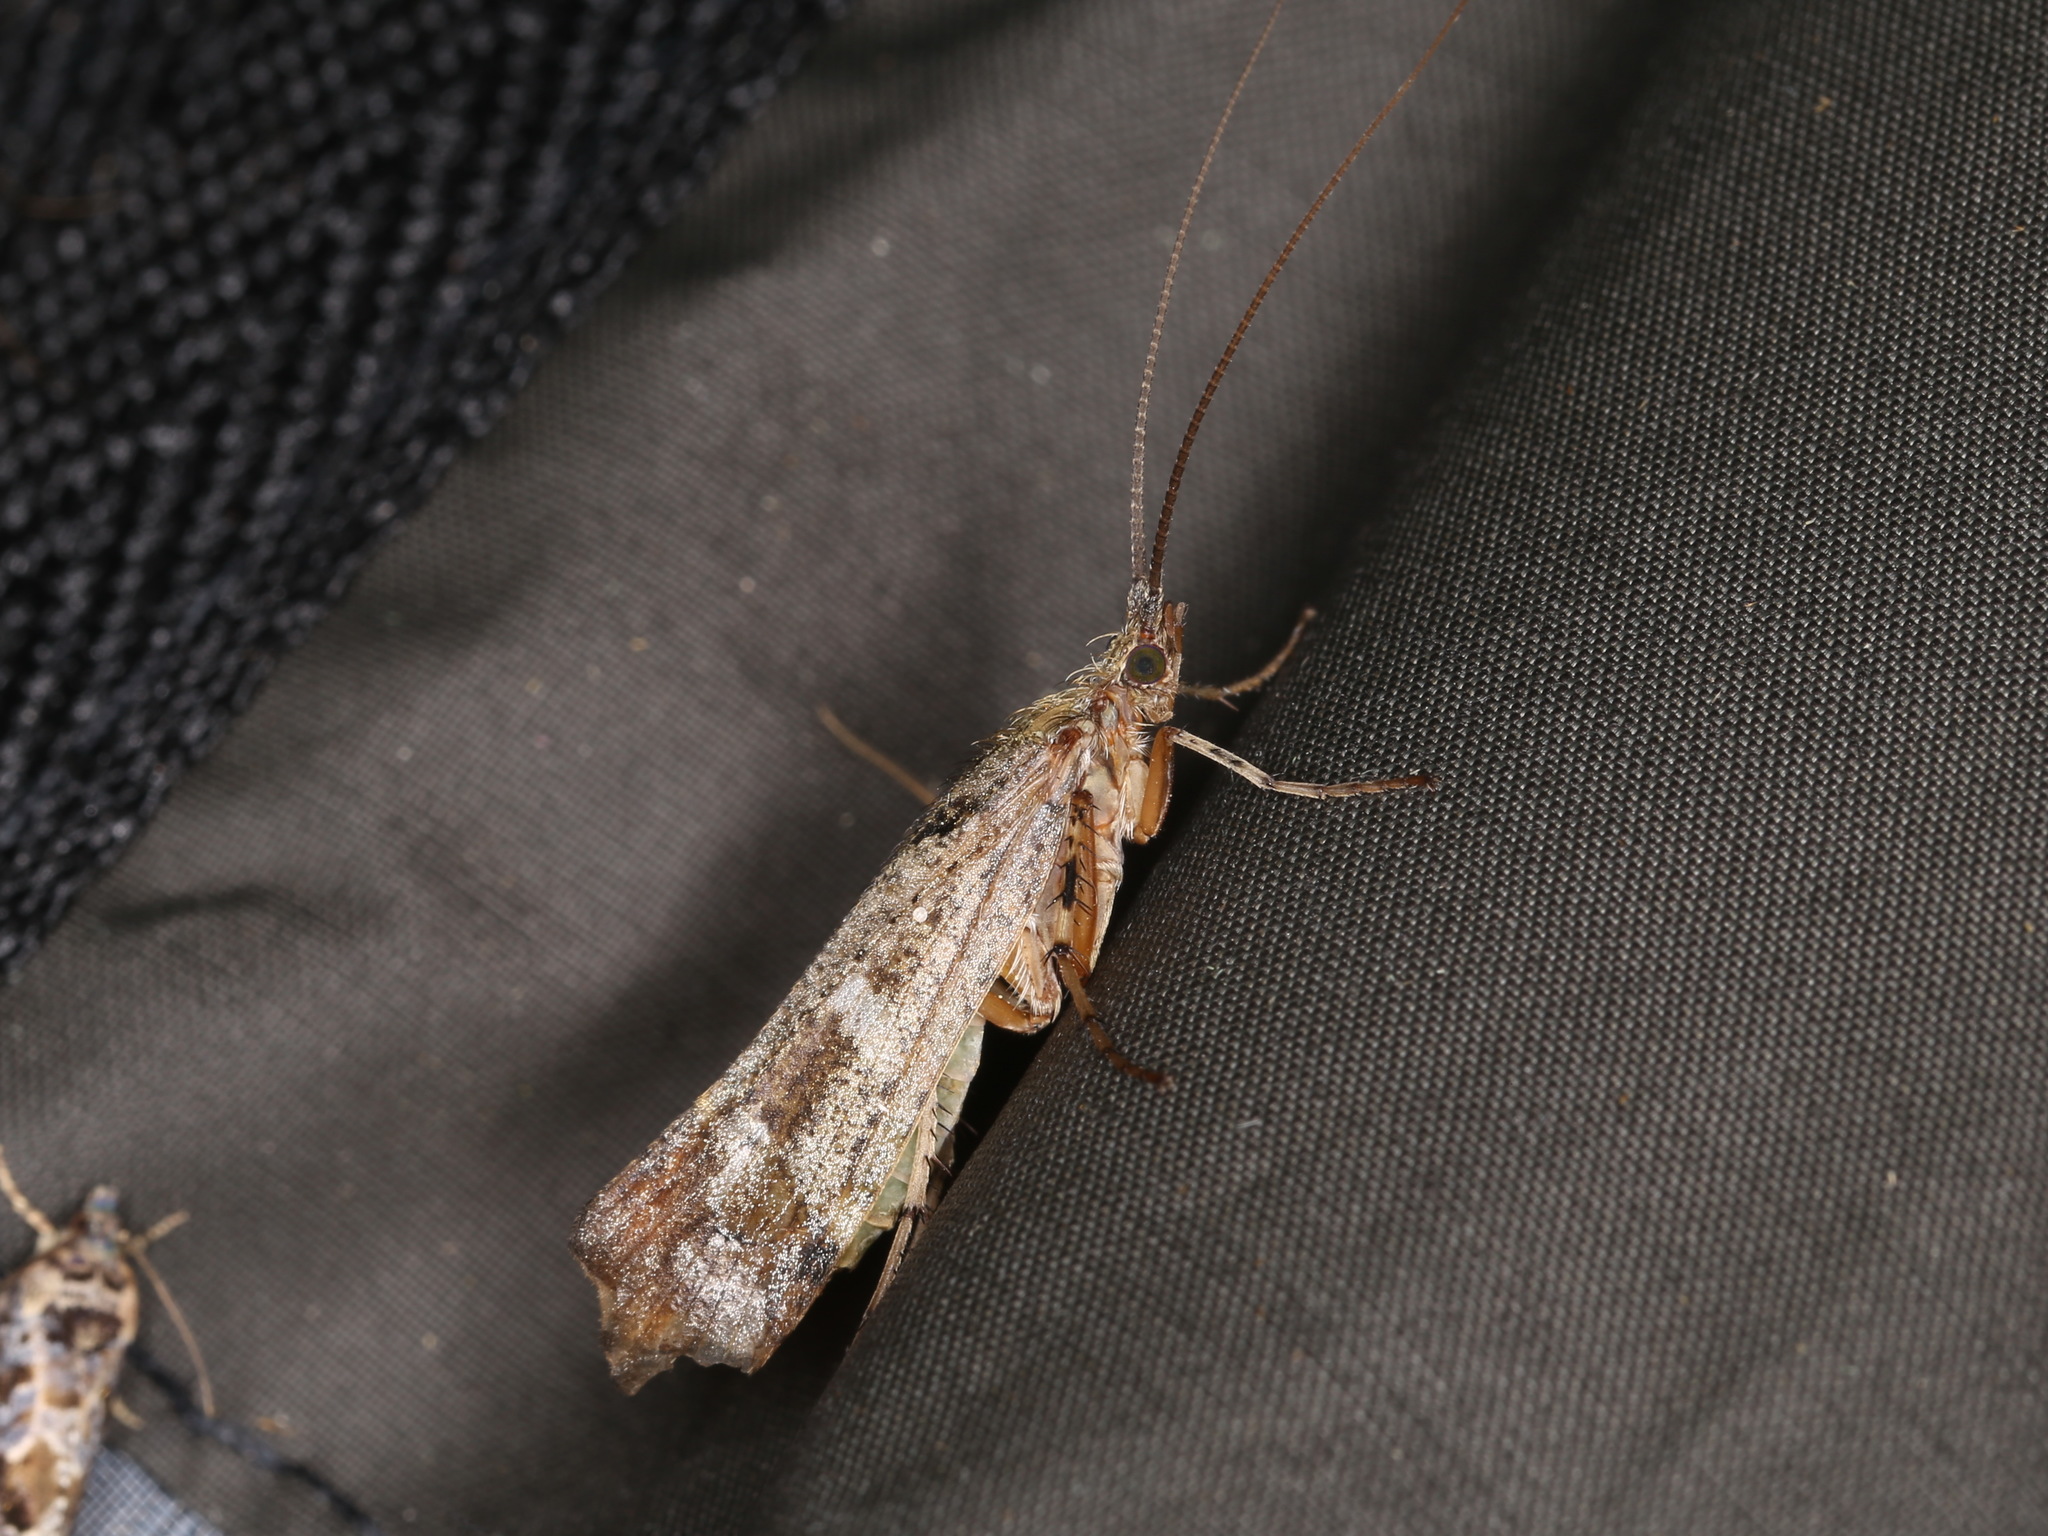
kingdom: Animalia
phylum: Arthropoda
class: Insecta
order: Trichoptera
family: Limnephilidae
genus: Glyphotaelius
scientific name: Glyphotaelius pellucidus
